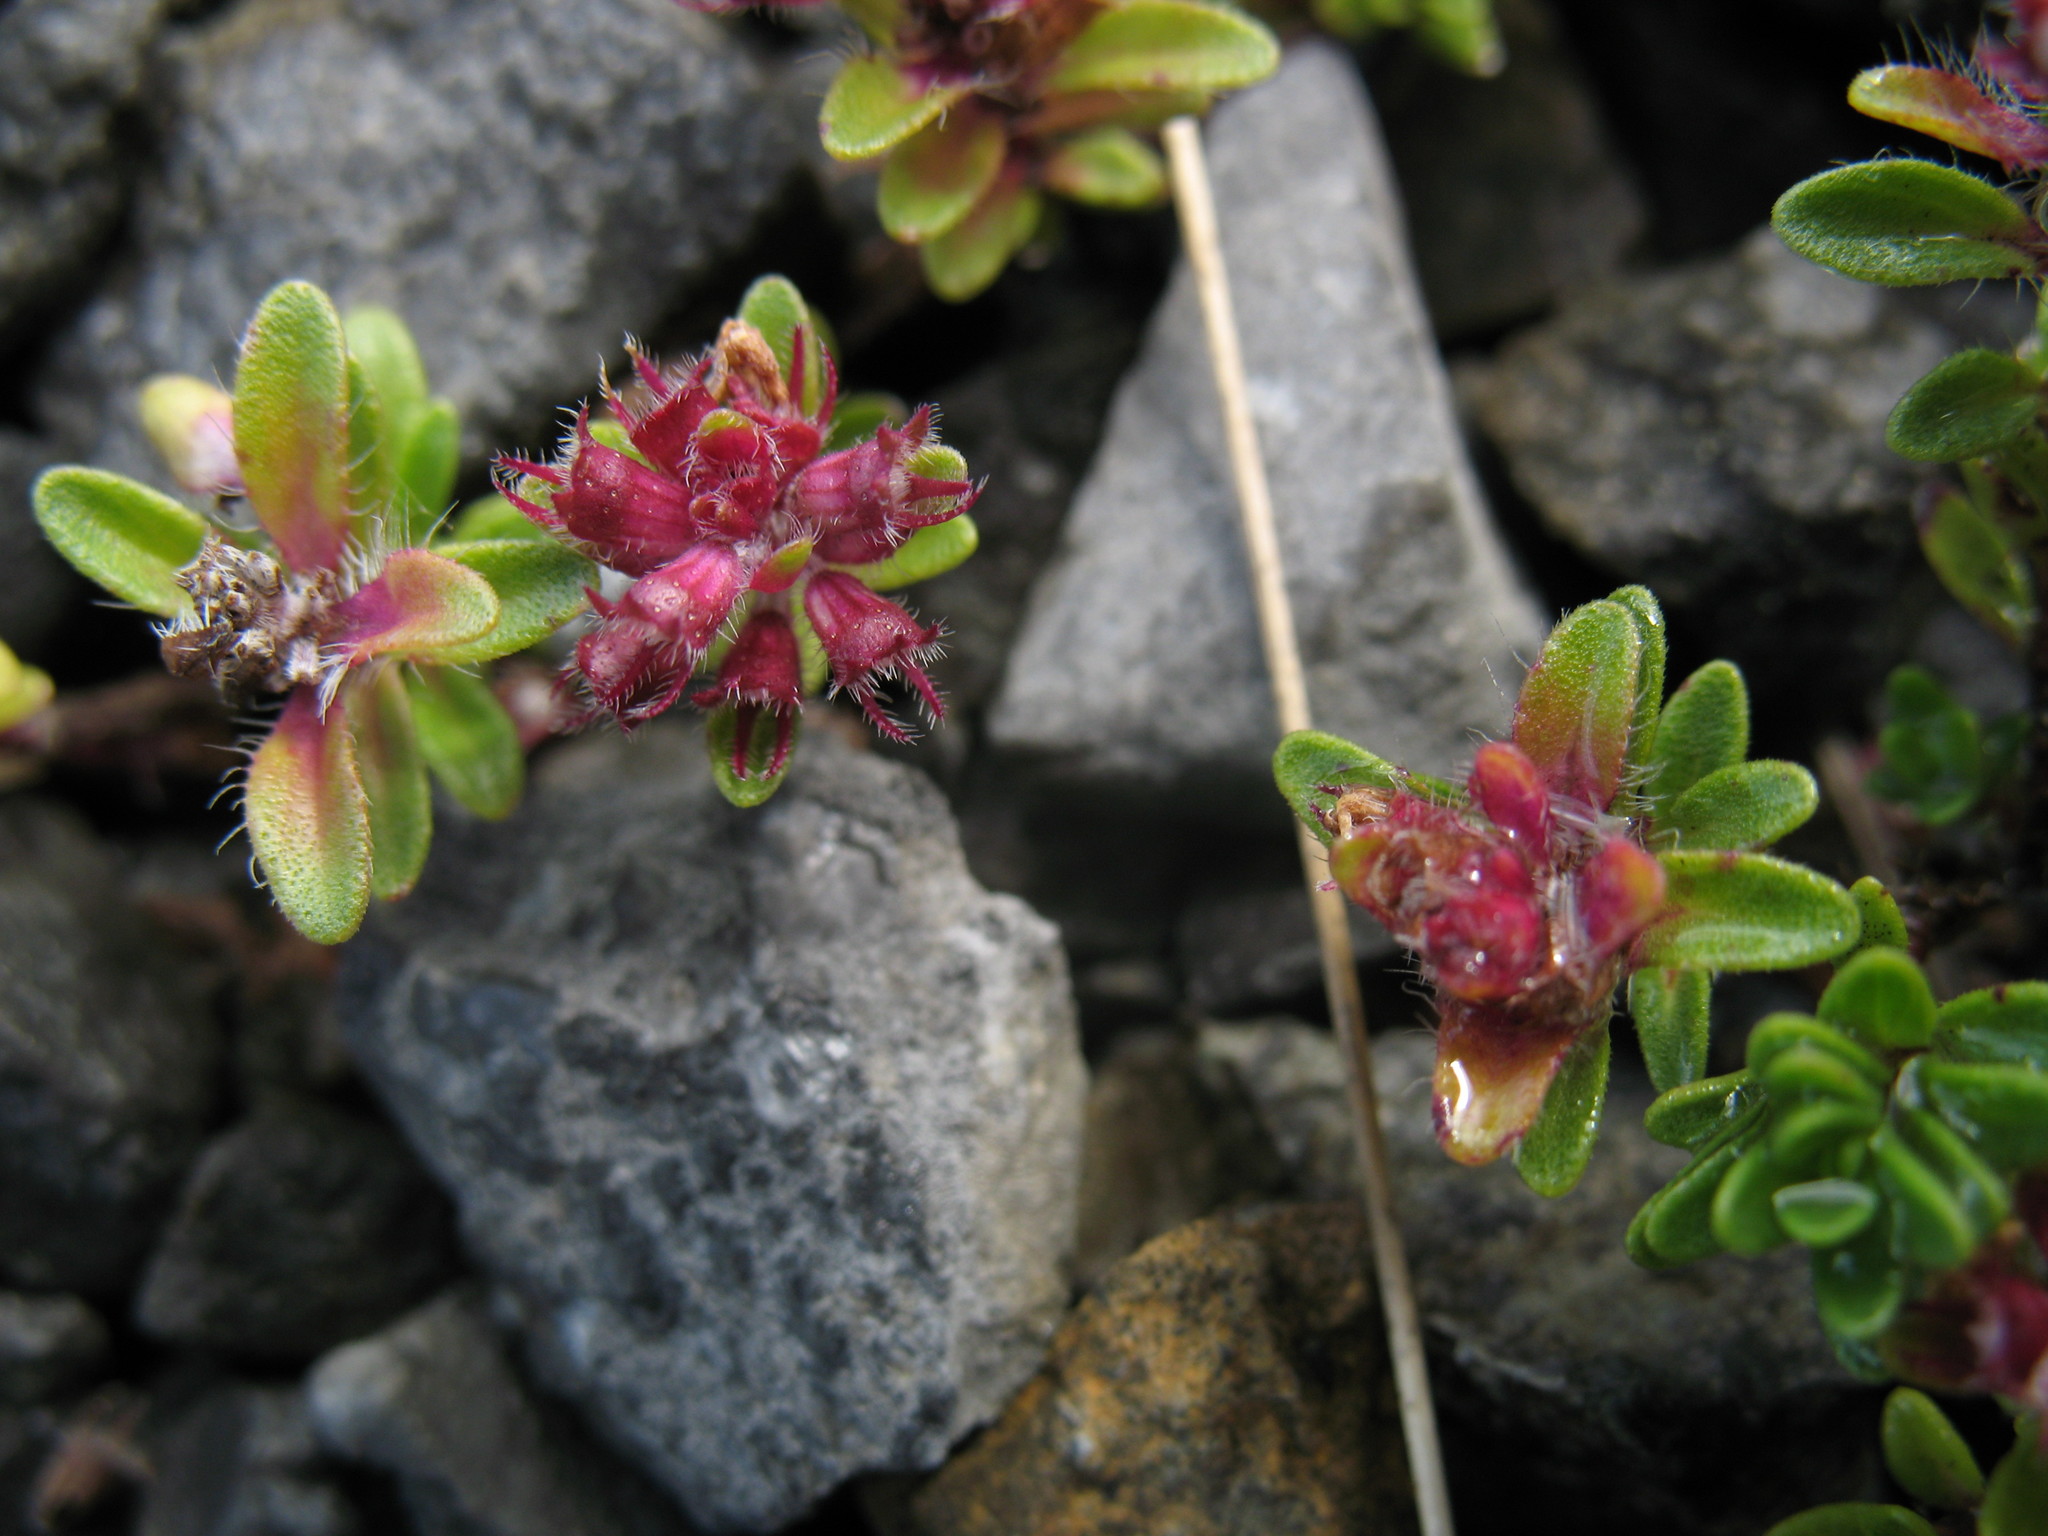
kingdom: Plantae
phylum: Tracheophyta
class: Magnoliopsida
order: Lamiales
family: Lamiaceae
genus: Thymus
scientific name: Thymus praecox
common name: Wild thyme
